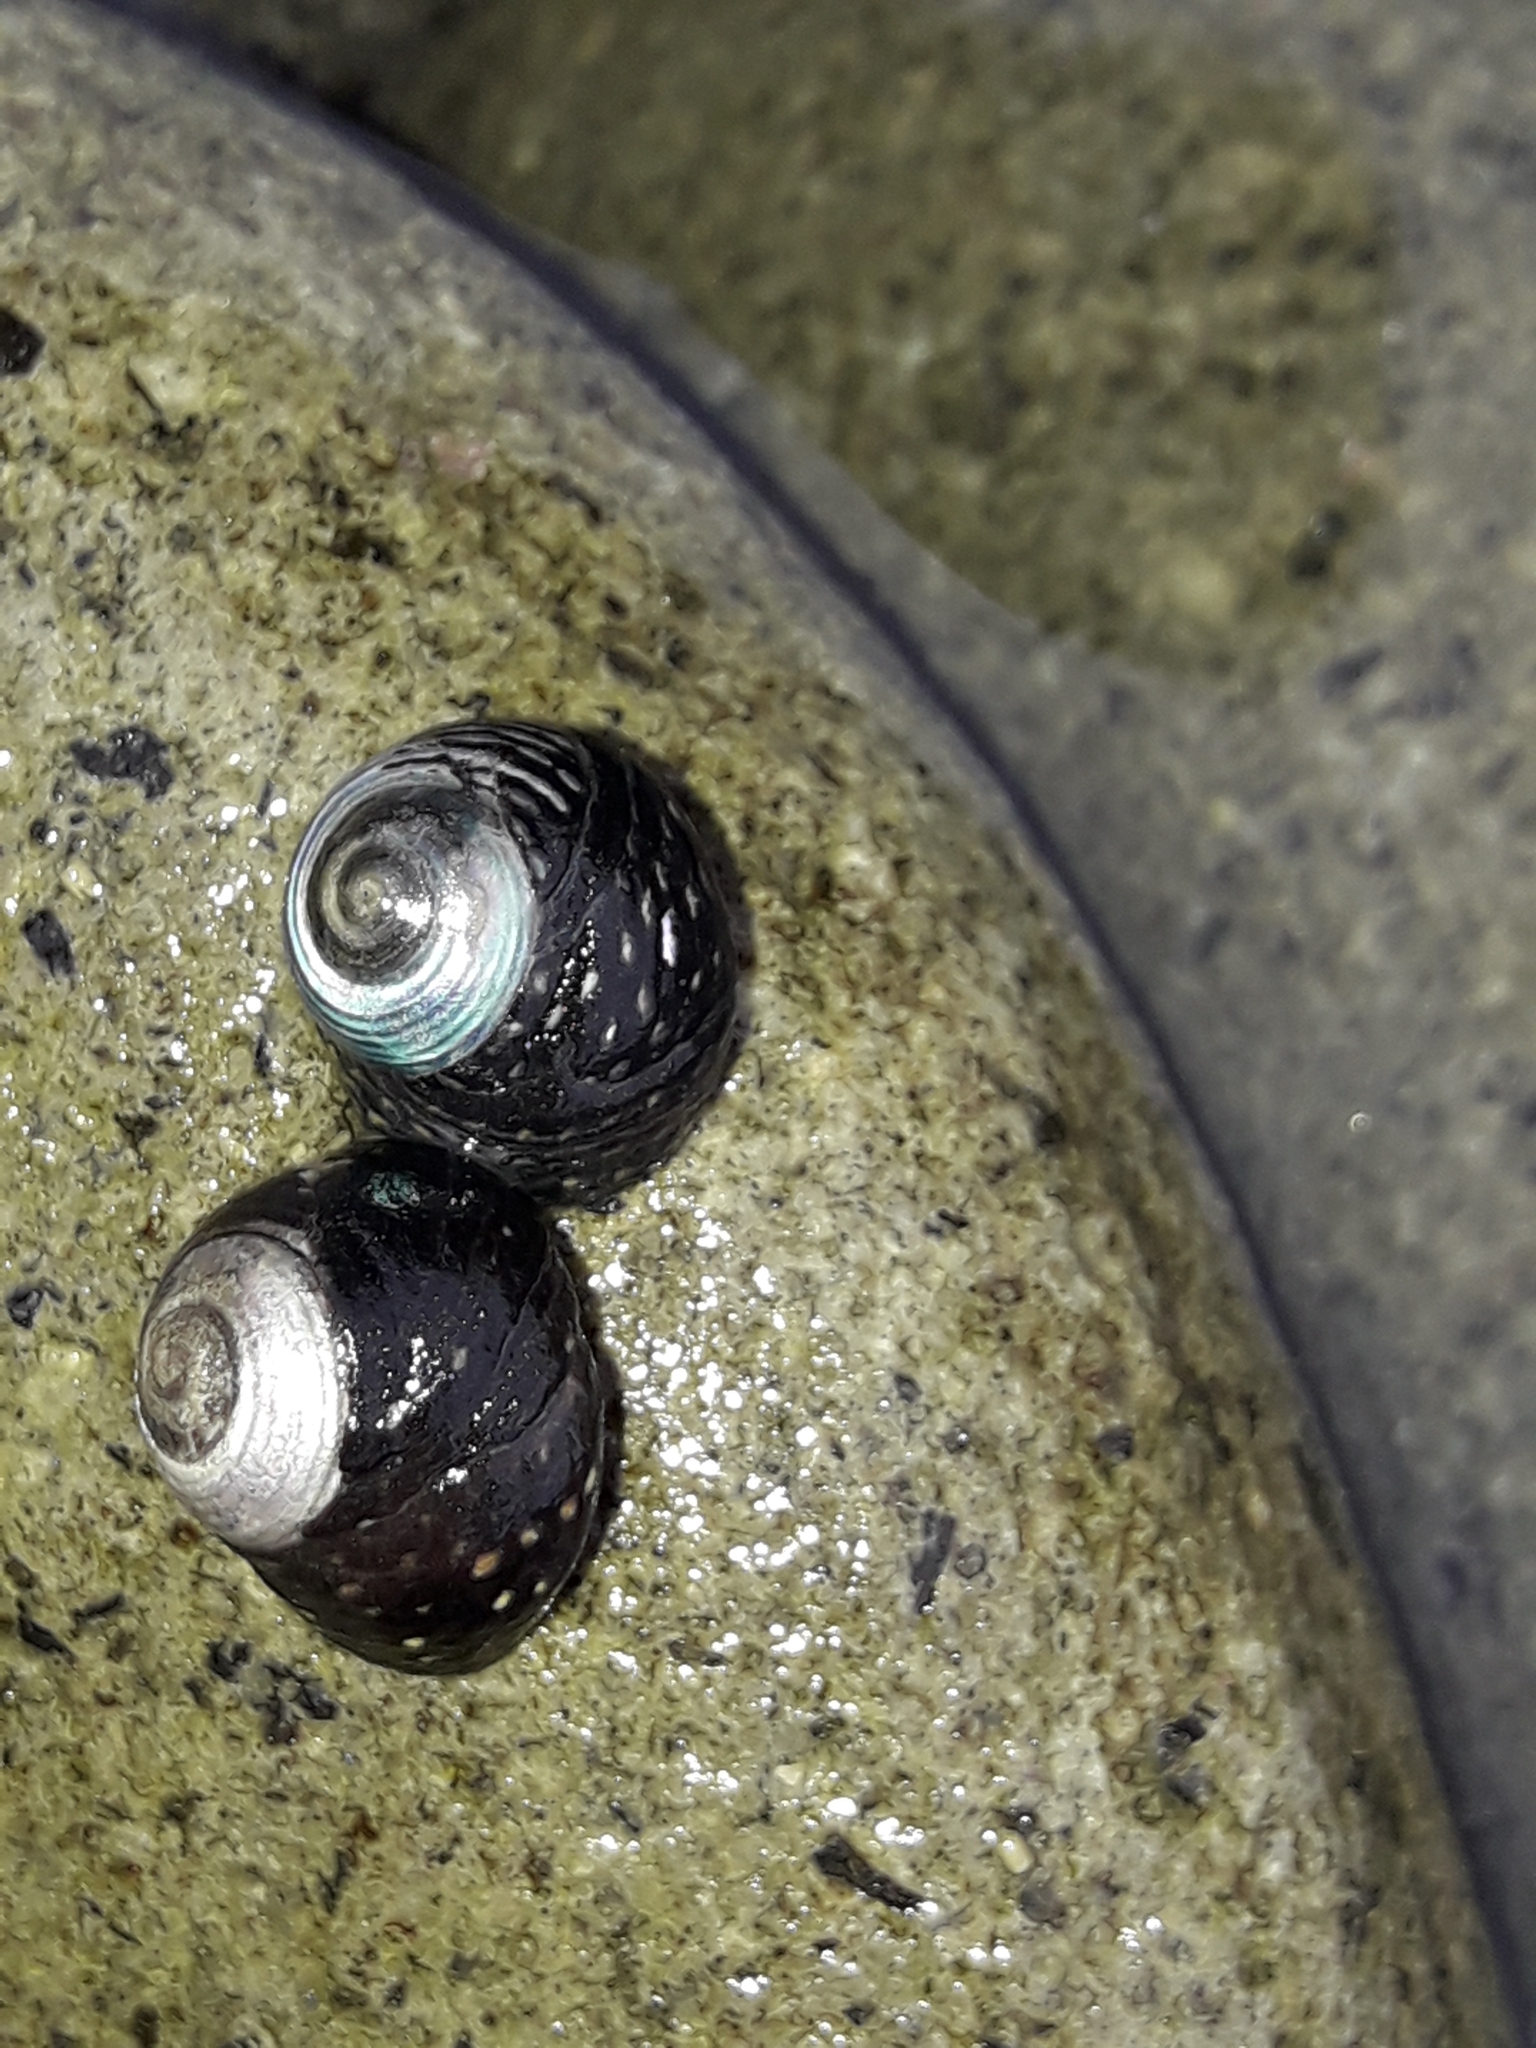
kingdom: Animalia
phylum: Mollusca
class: Gastropoda
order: Trochida
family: Trochidae
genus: Diloma
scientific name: Diloma aridum
